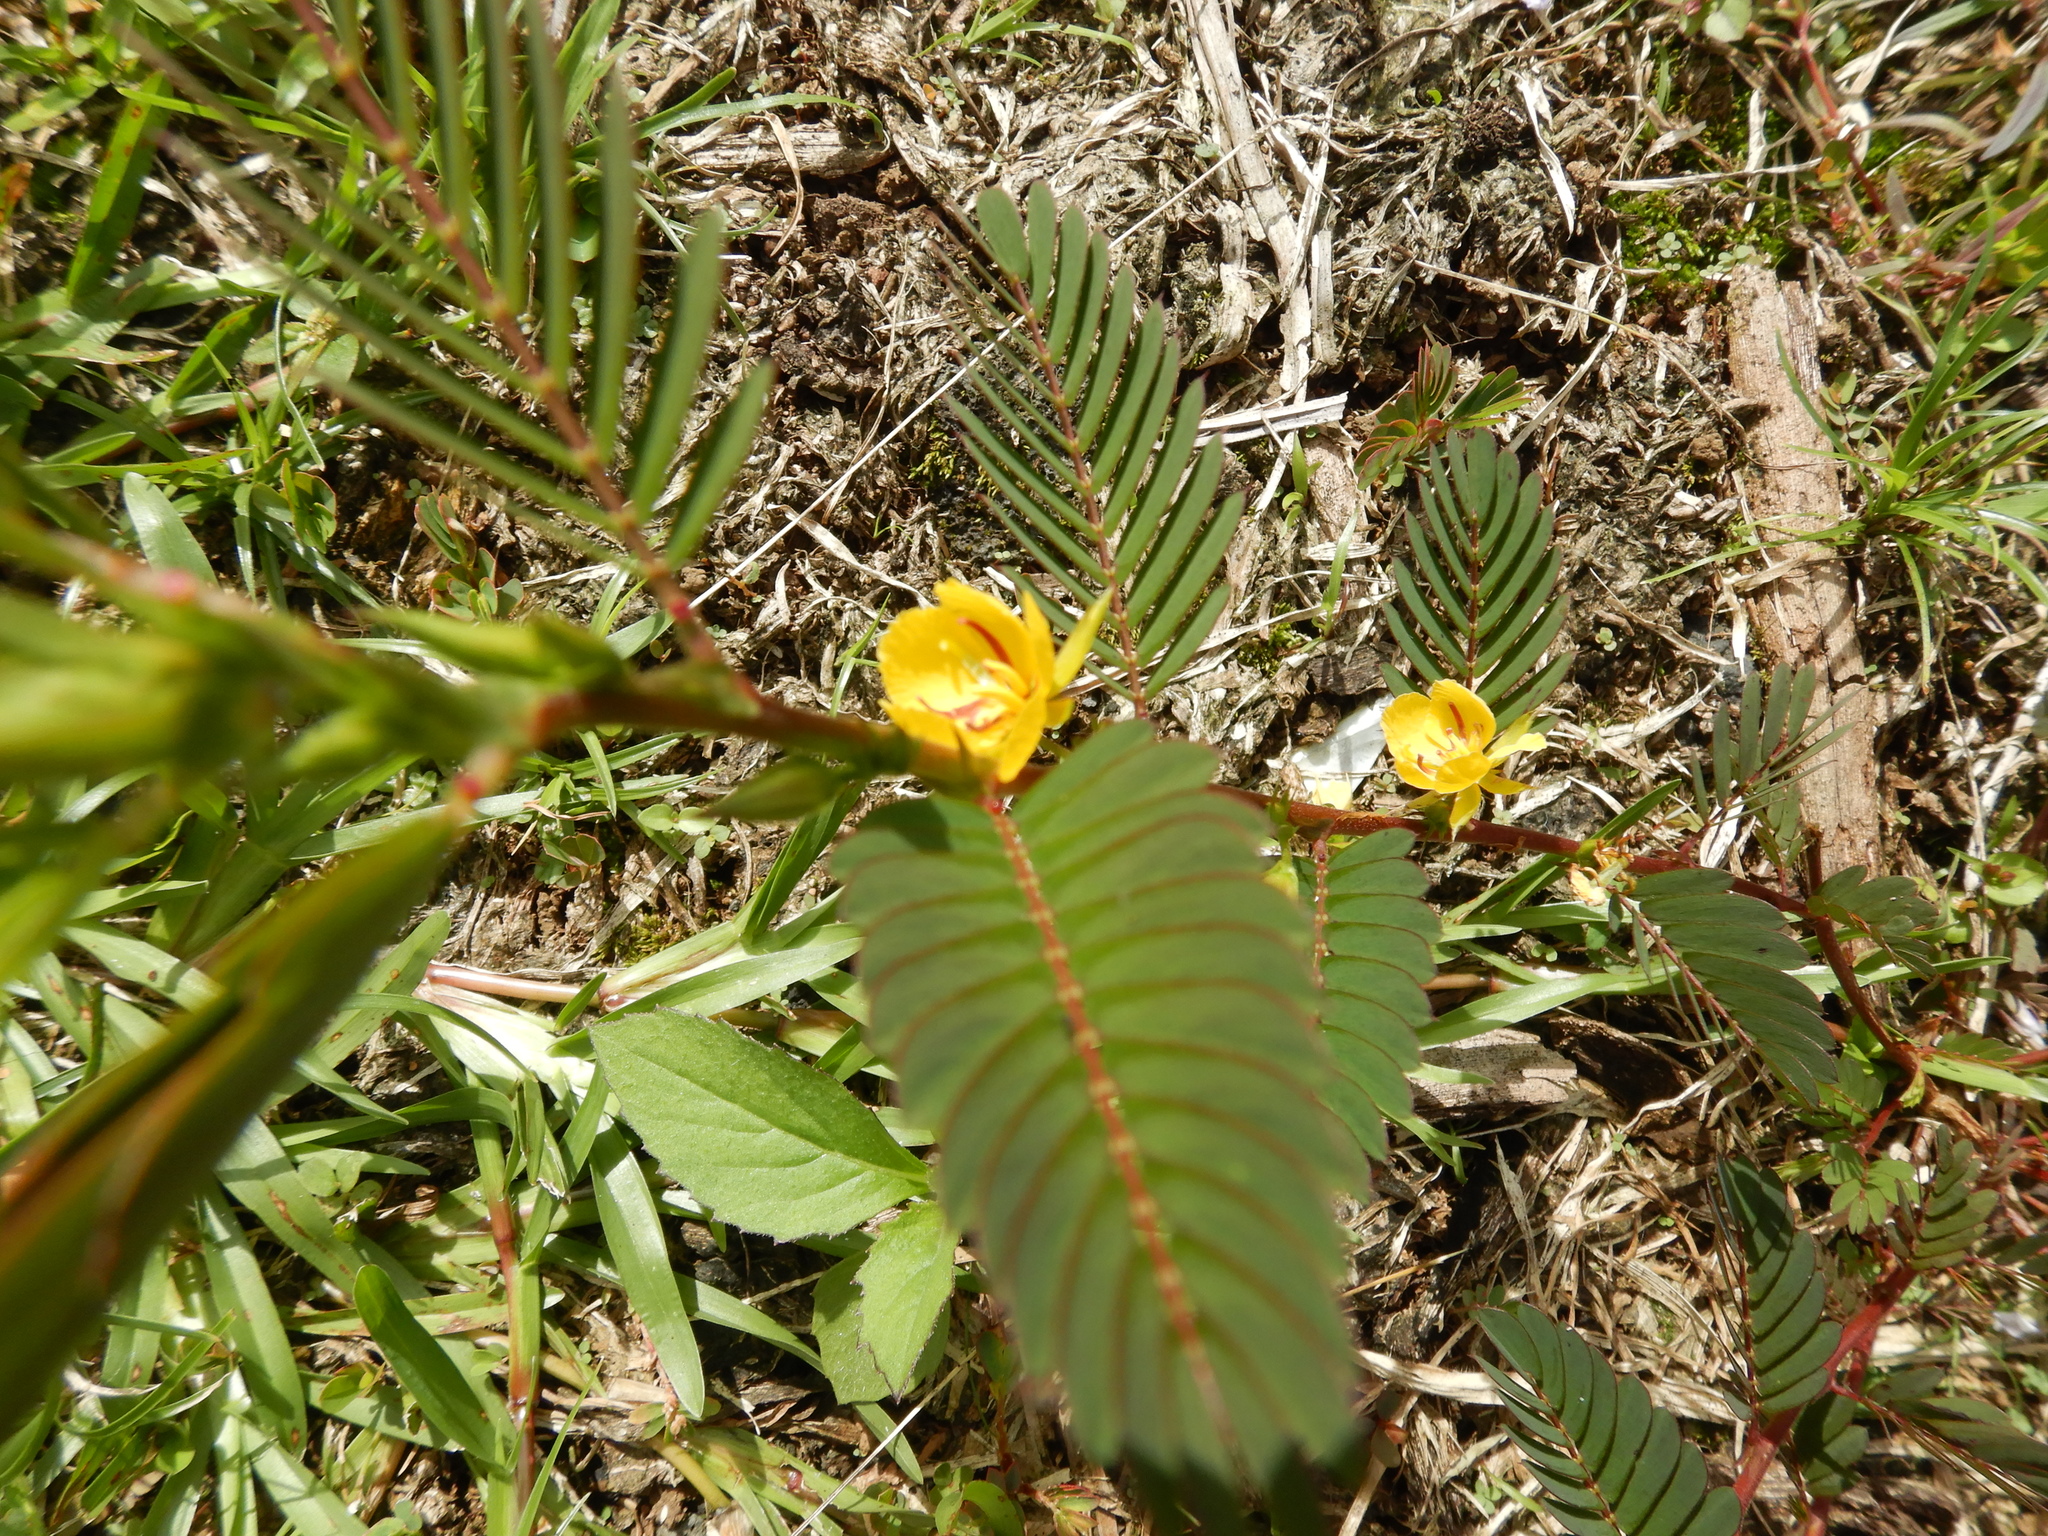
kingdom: Plantae
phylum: Tracheophyta
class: Magnoliopsida
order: Fabales
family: Fabaceae
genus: Chamaecrista
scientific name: Chamaecrista nictitans
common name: Sensitive cassia
